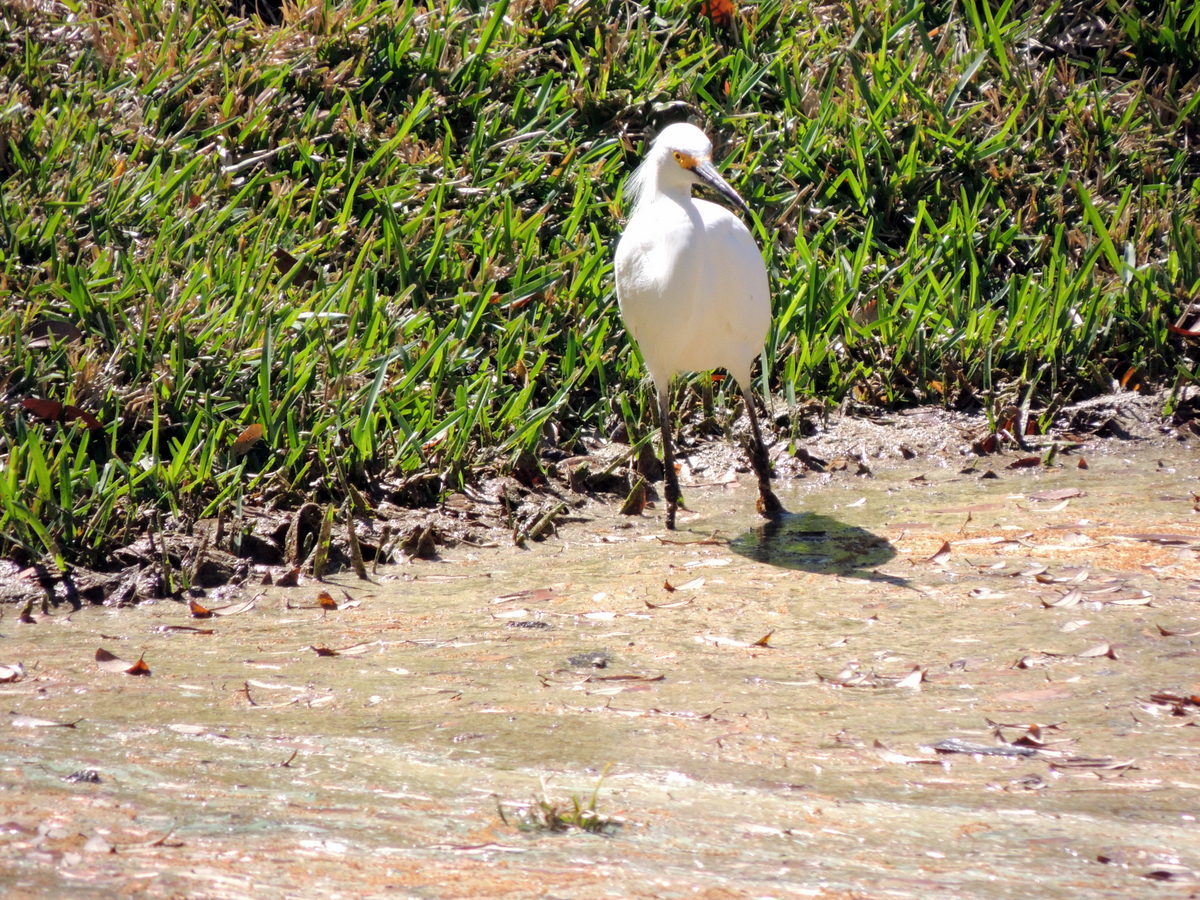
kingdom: Animalia
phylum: Chordata
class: Aves
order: Pelecaniformes
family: Ardeidae
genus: Egretta
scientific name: Egretta thula
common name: Snowy egret
